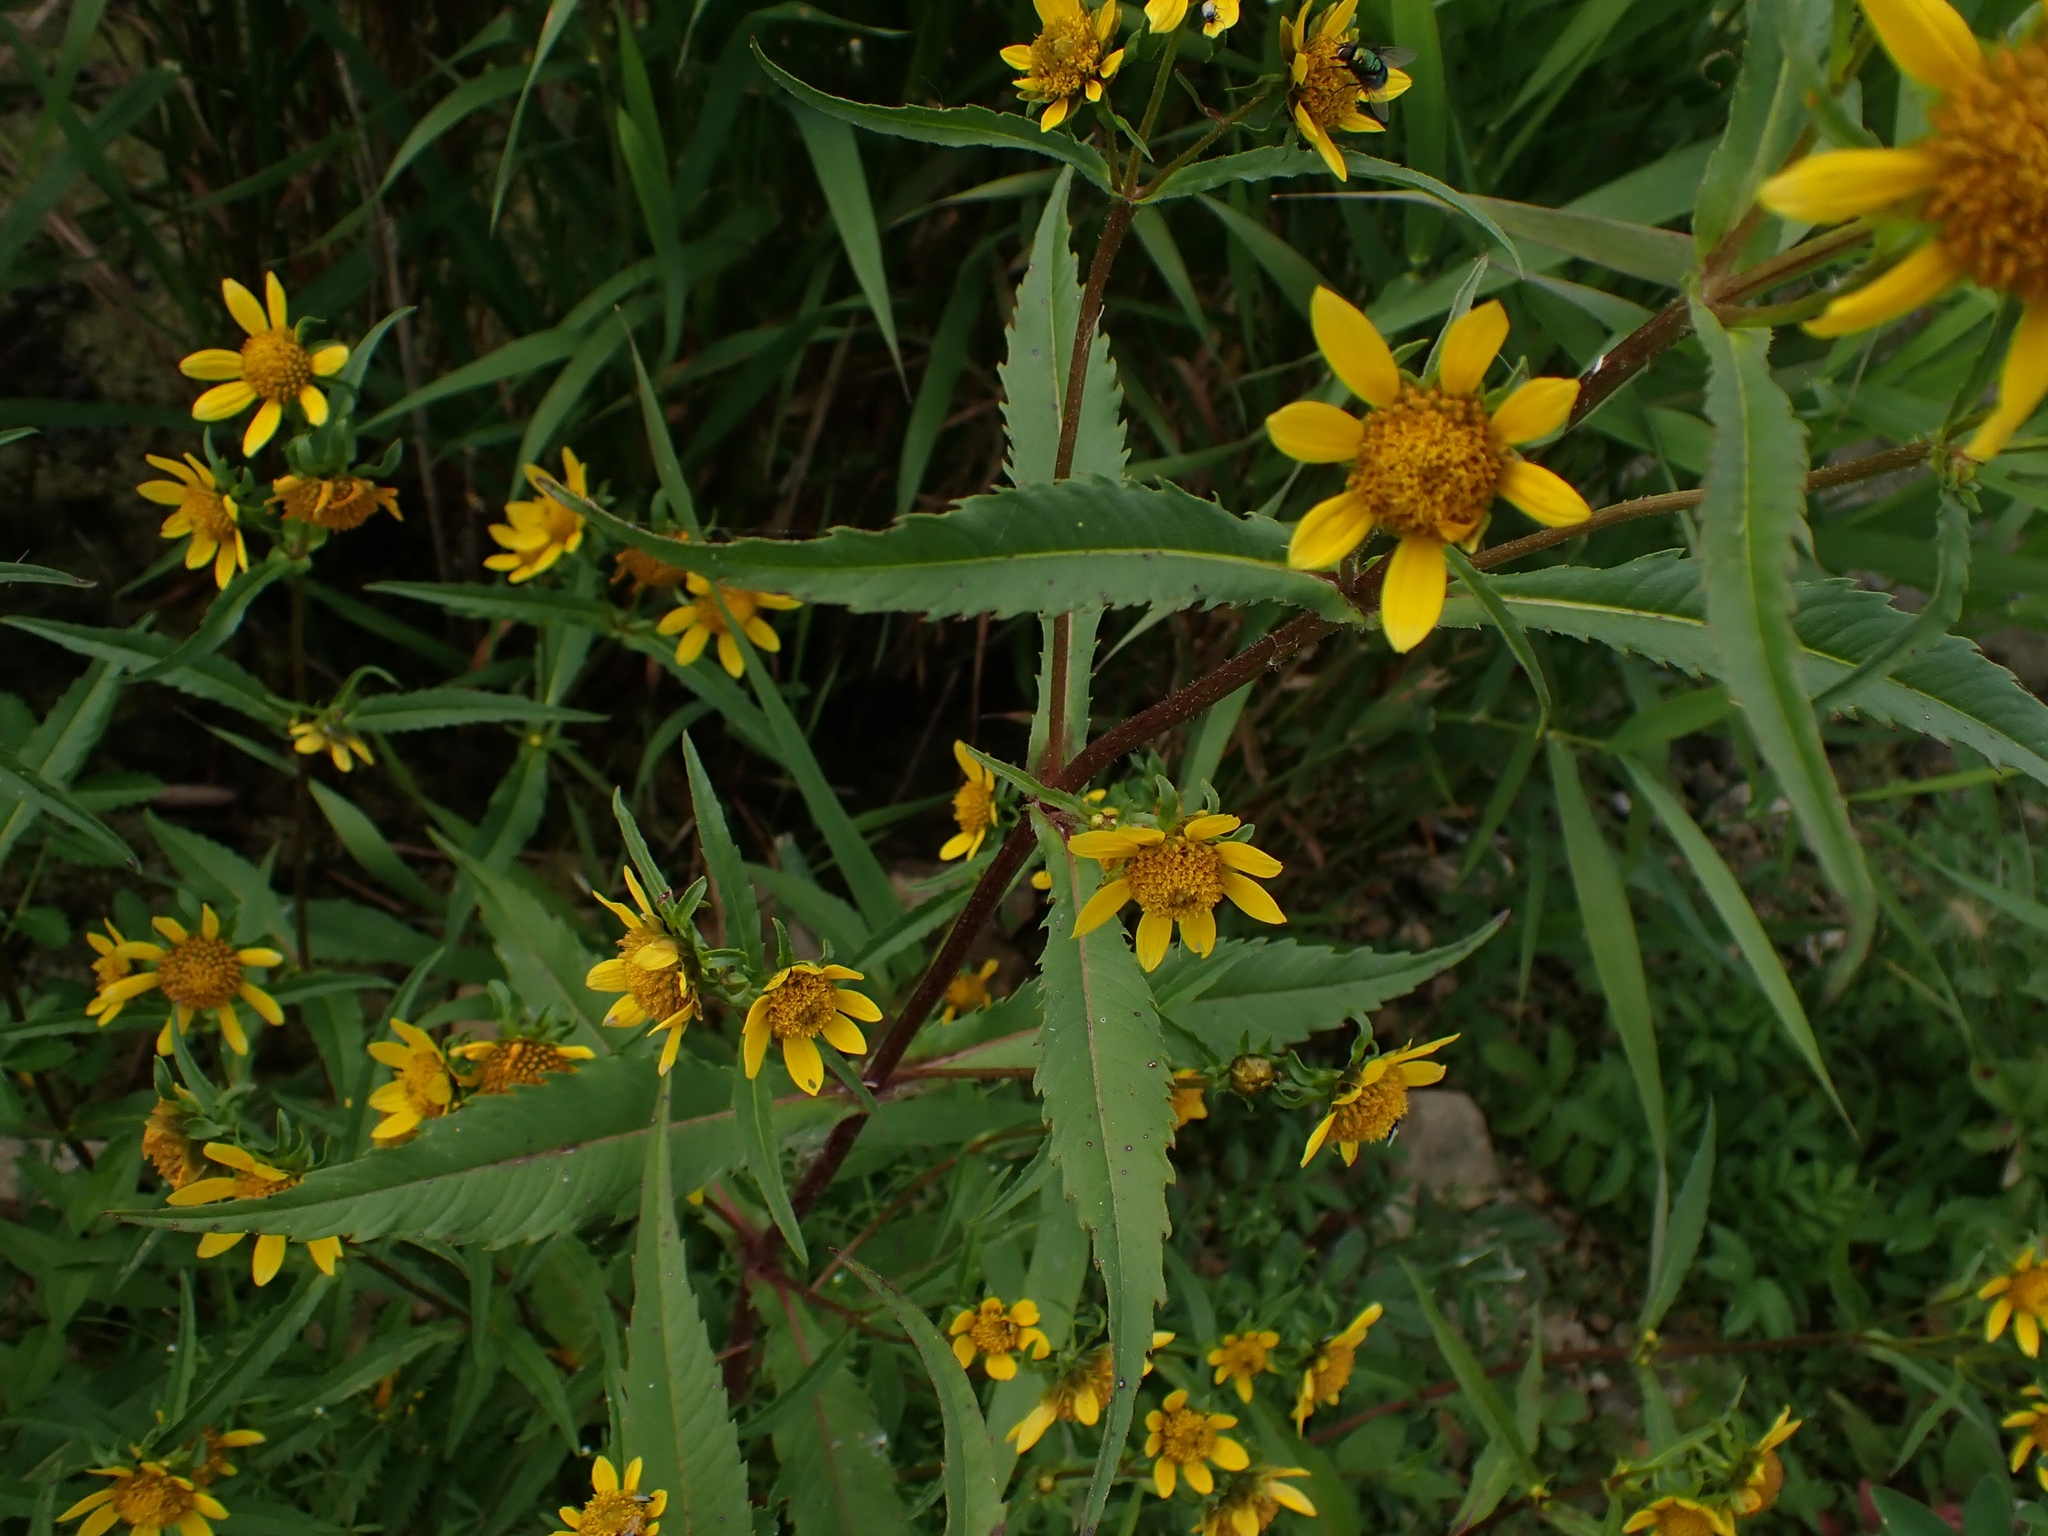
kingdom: Plantae
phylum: Tracheophyta
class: Magnoliopsida
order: Asterales
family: Asteraceae
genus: Bidens
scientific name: Bidens cernua
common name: Nodding bur-marigold
